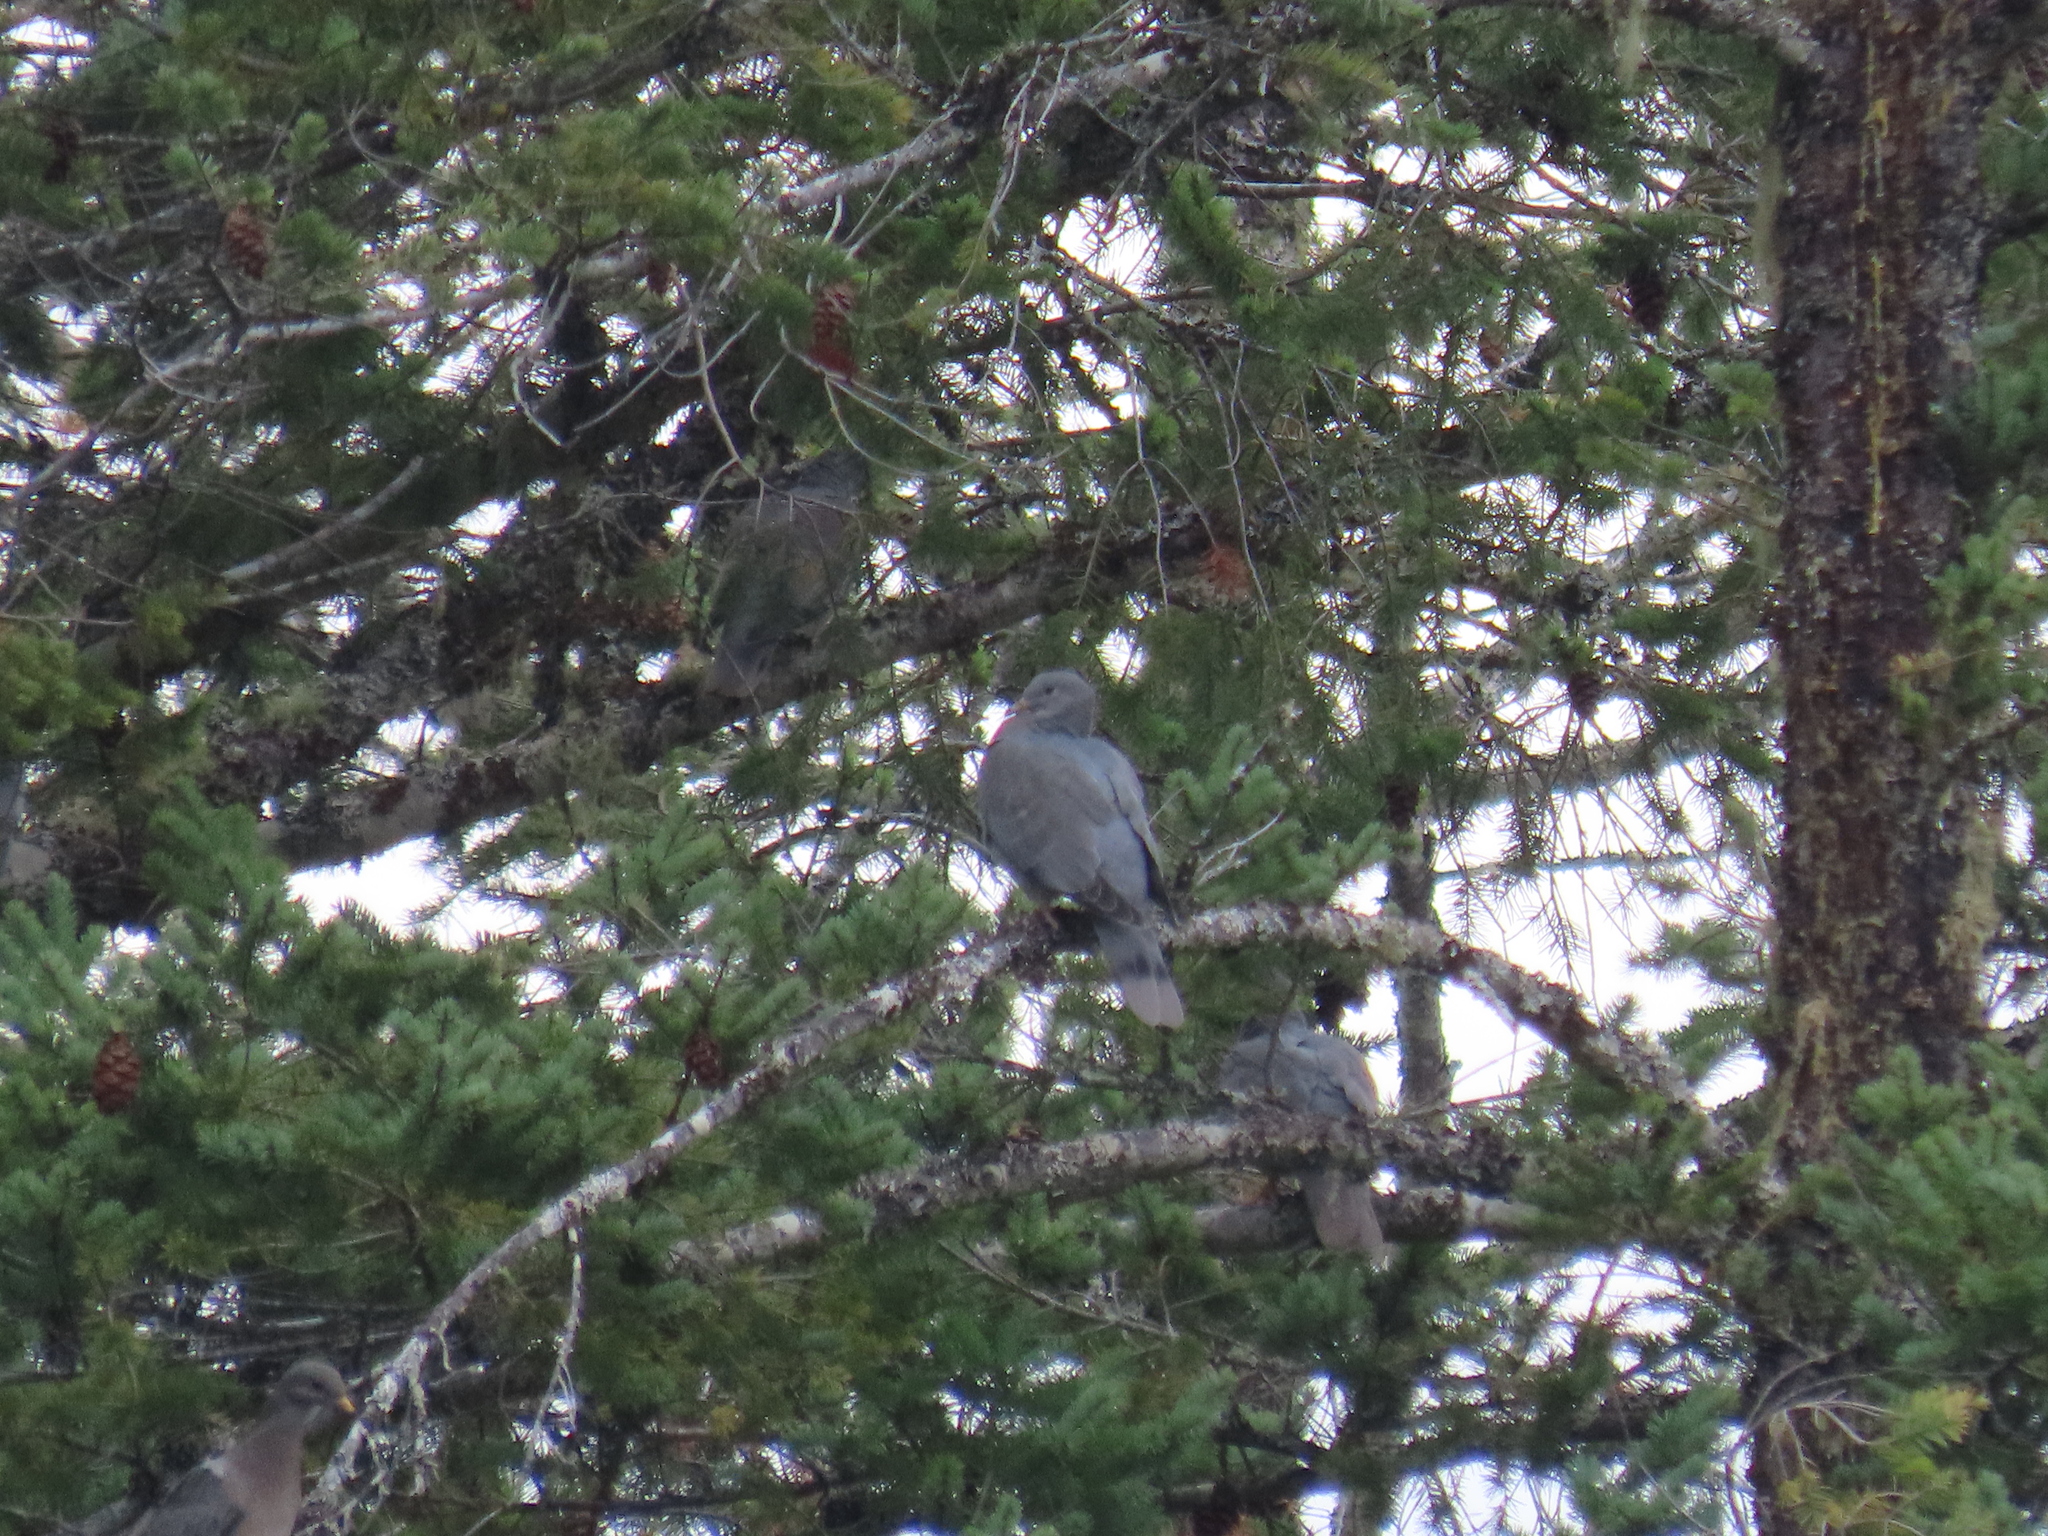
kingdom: Animalia
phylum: Chordata
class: Aves
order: Columbiformes
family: Columbidae
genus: Patagioenas
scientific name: Patagioenas fasciata
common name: Band-tailed pigeon
